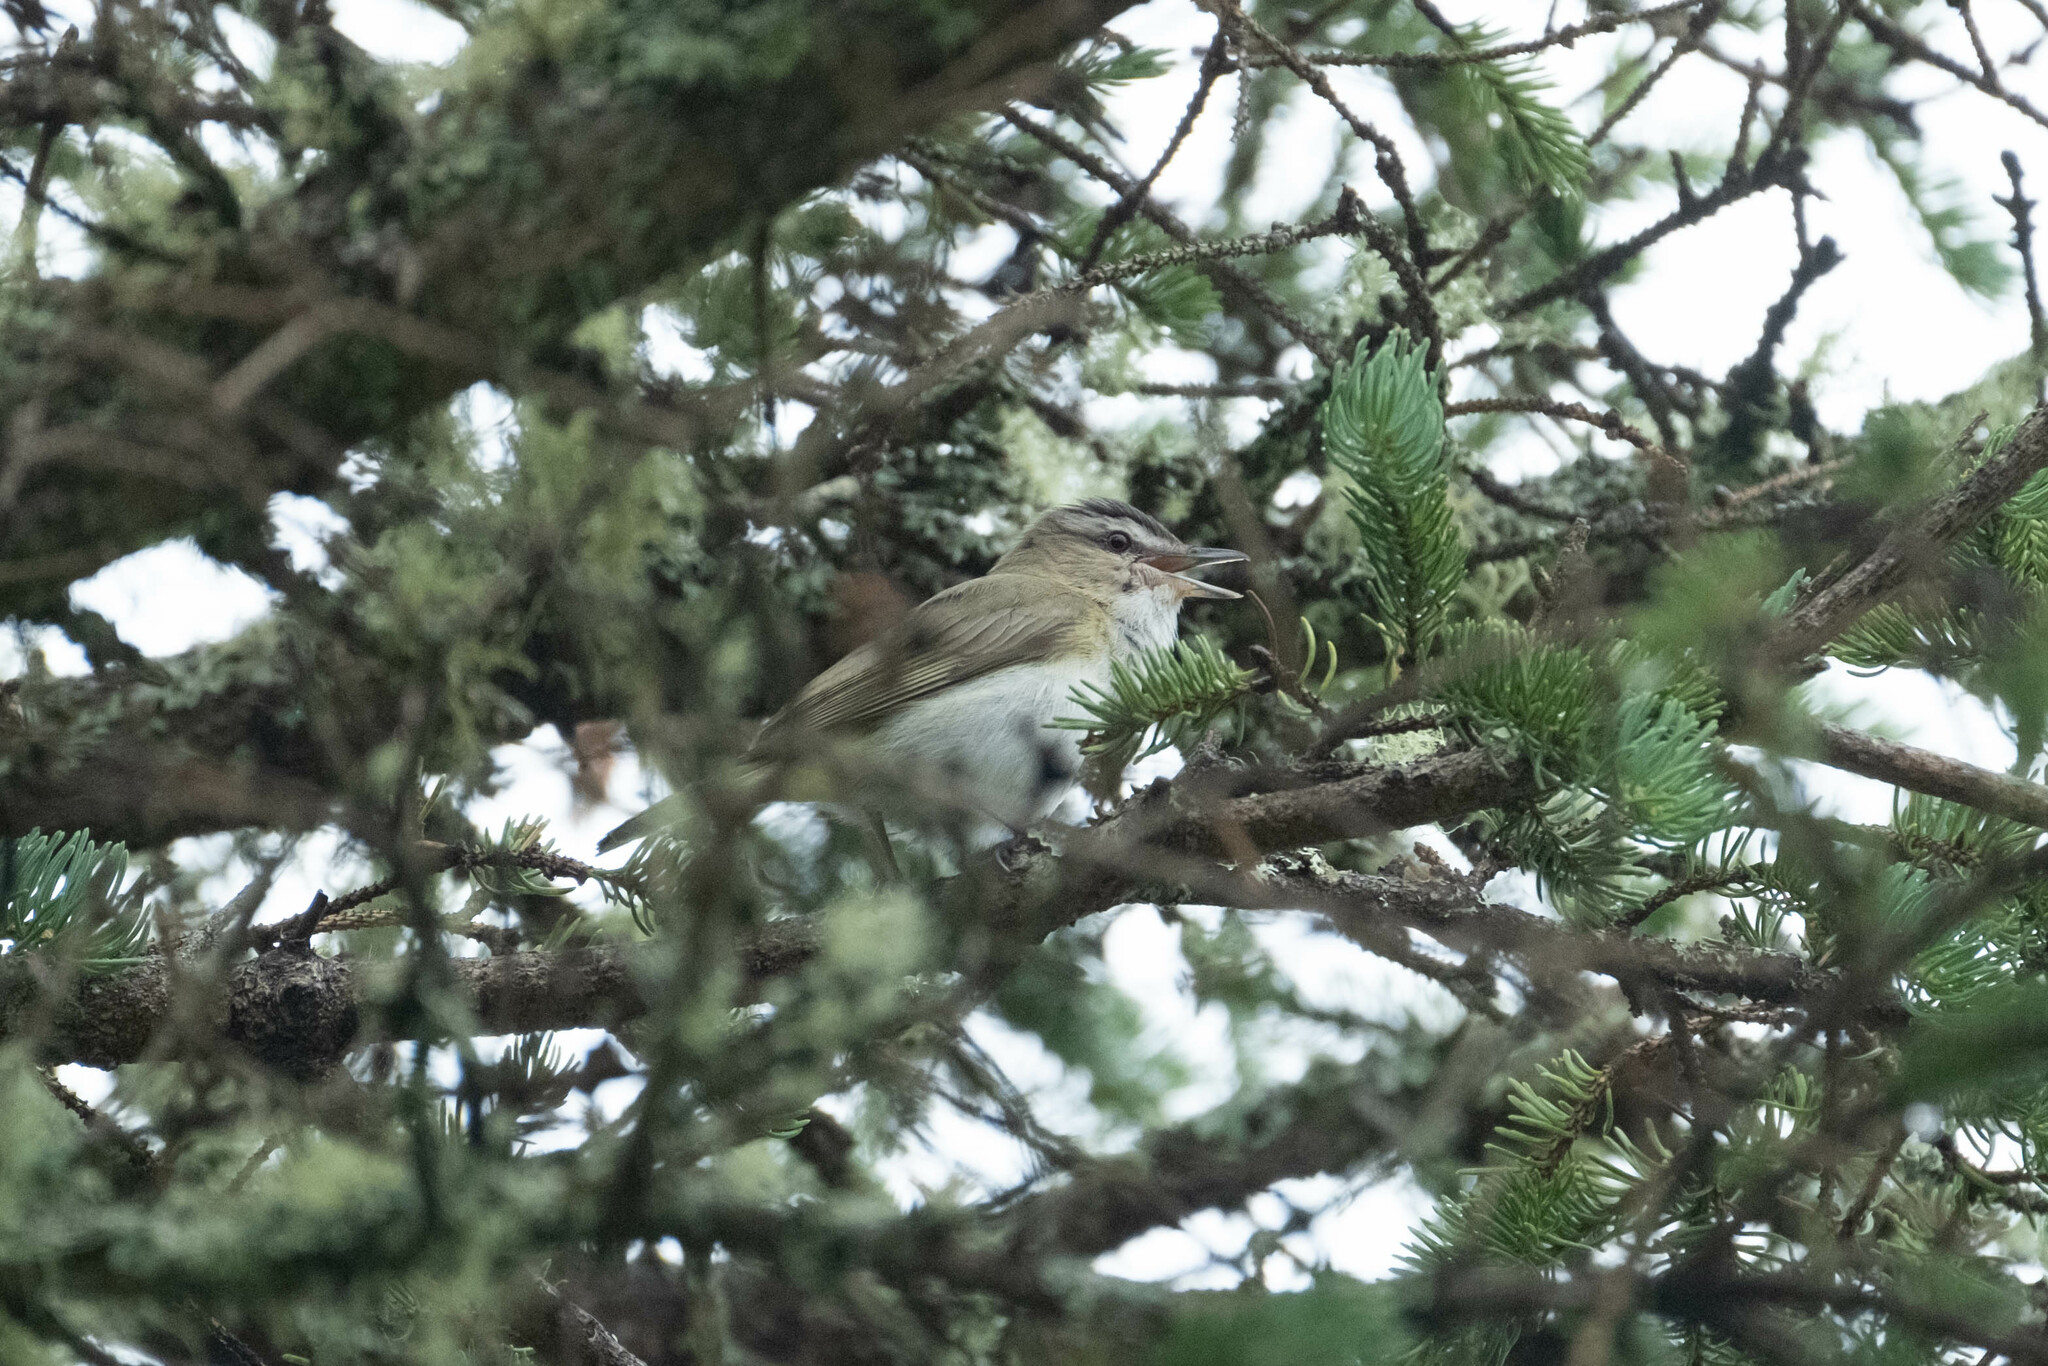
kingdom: Animalia
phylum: Chordata
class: Aves
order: Passeriformes
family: Vireonidae
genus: Vireo
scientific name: Vireo olivaceus
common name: Red-eyed vireo
